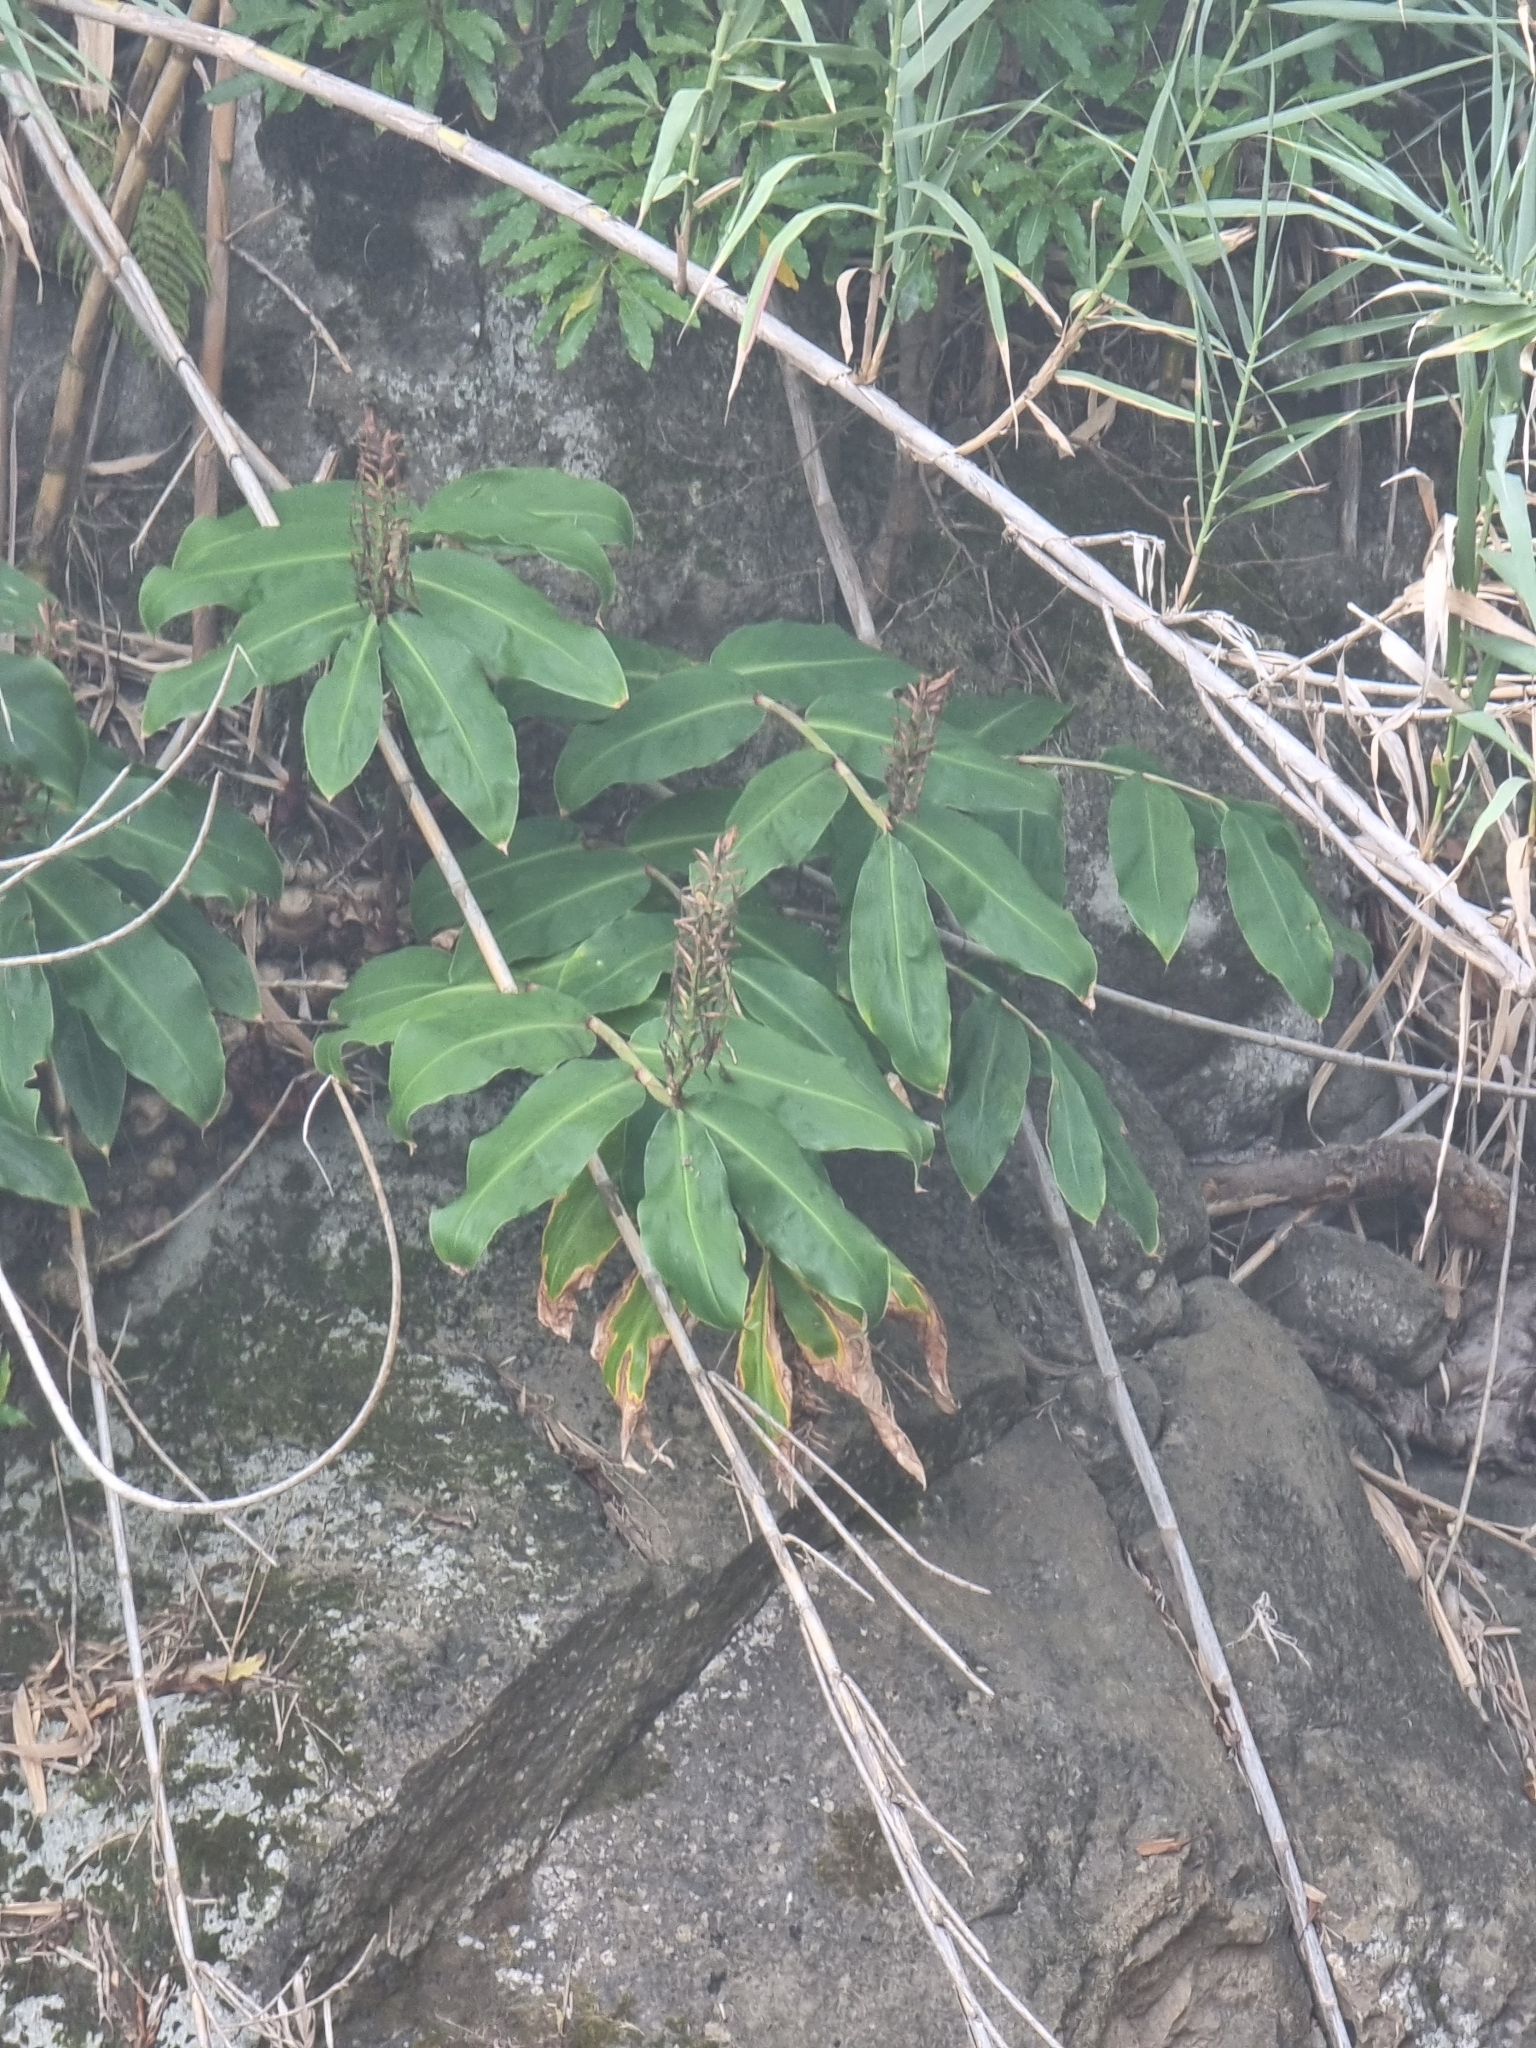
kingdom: Plantae
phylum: Tracheophyta
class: Liliopsida
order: Zingiberales
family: Zingiberaceae
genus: Hedychium
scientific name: Hedychium gardnerianum
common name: Himalayan ginger
